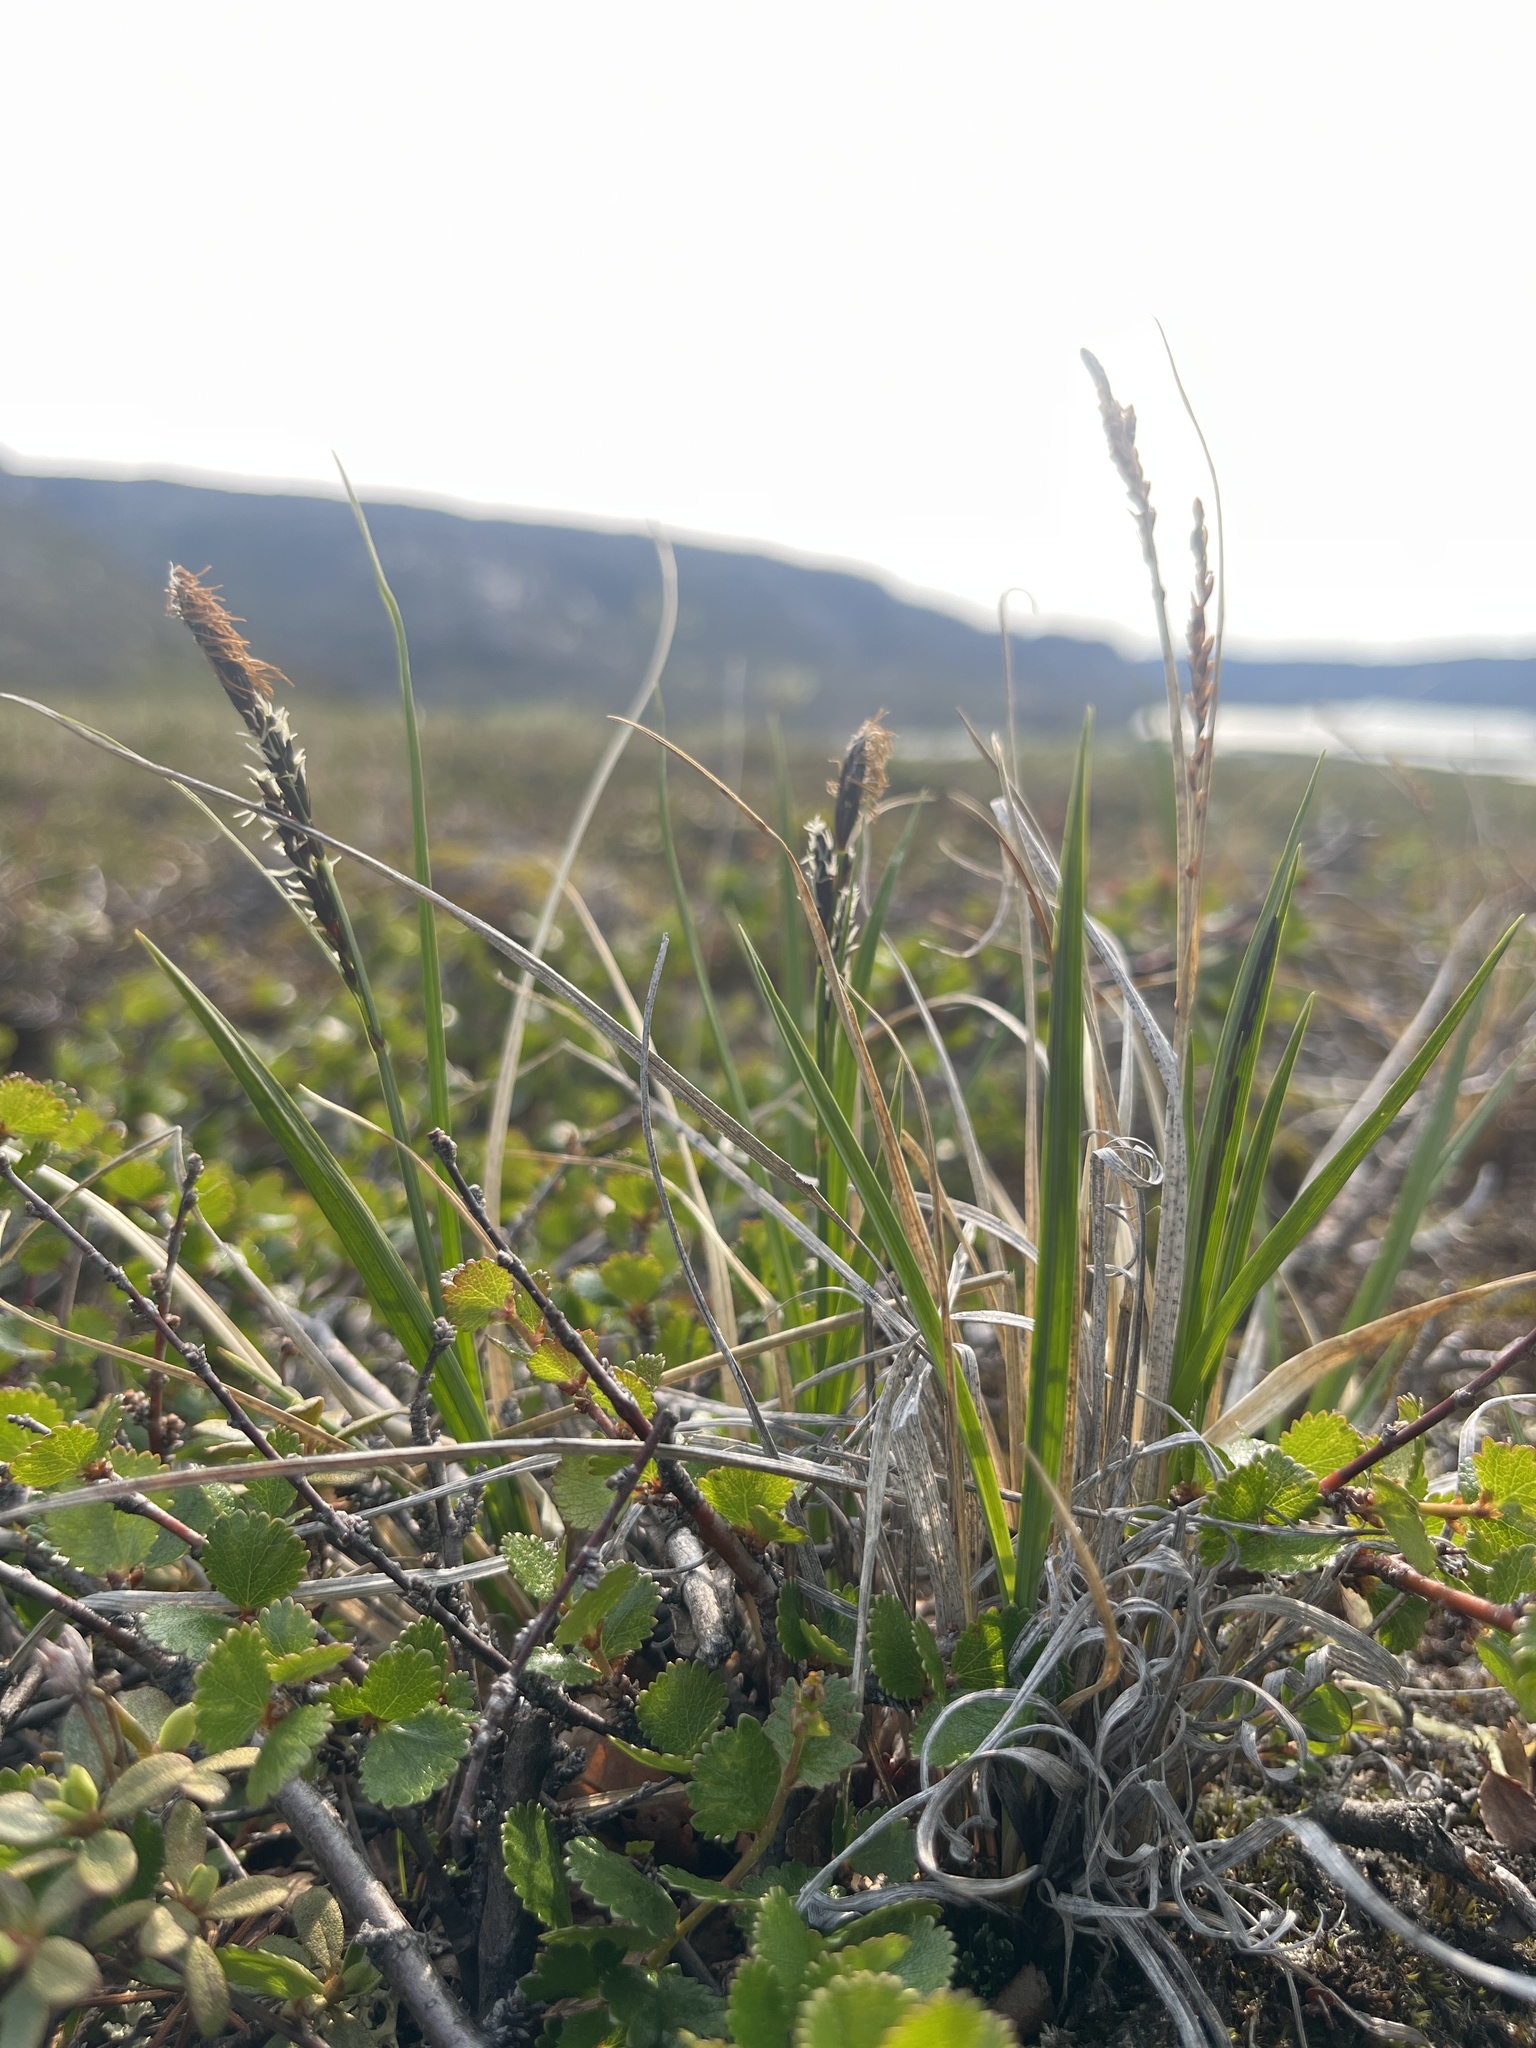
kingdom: Plantae
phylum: Tracheophyta
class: Liliopsida
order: Poales
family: Cyperaceae
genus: Carex
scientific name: Carex bigelowii
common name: Stiff sedge
